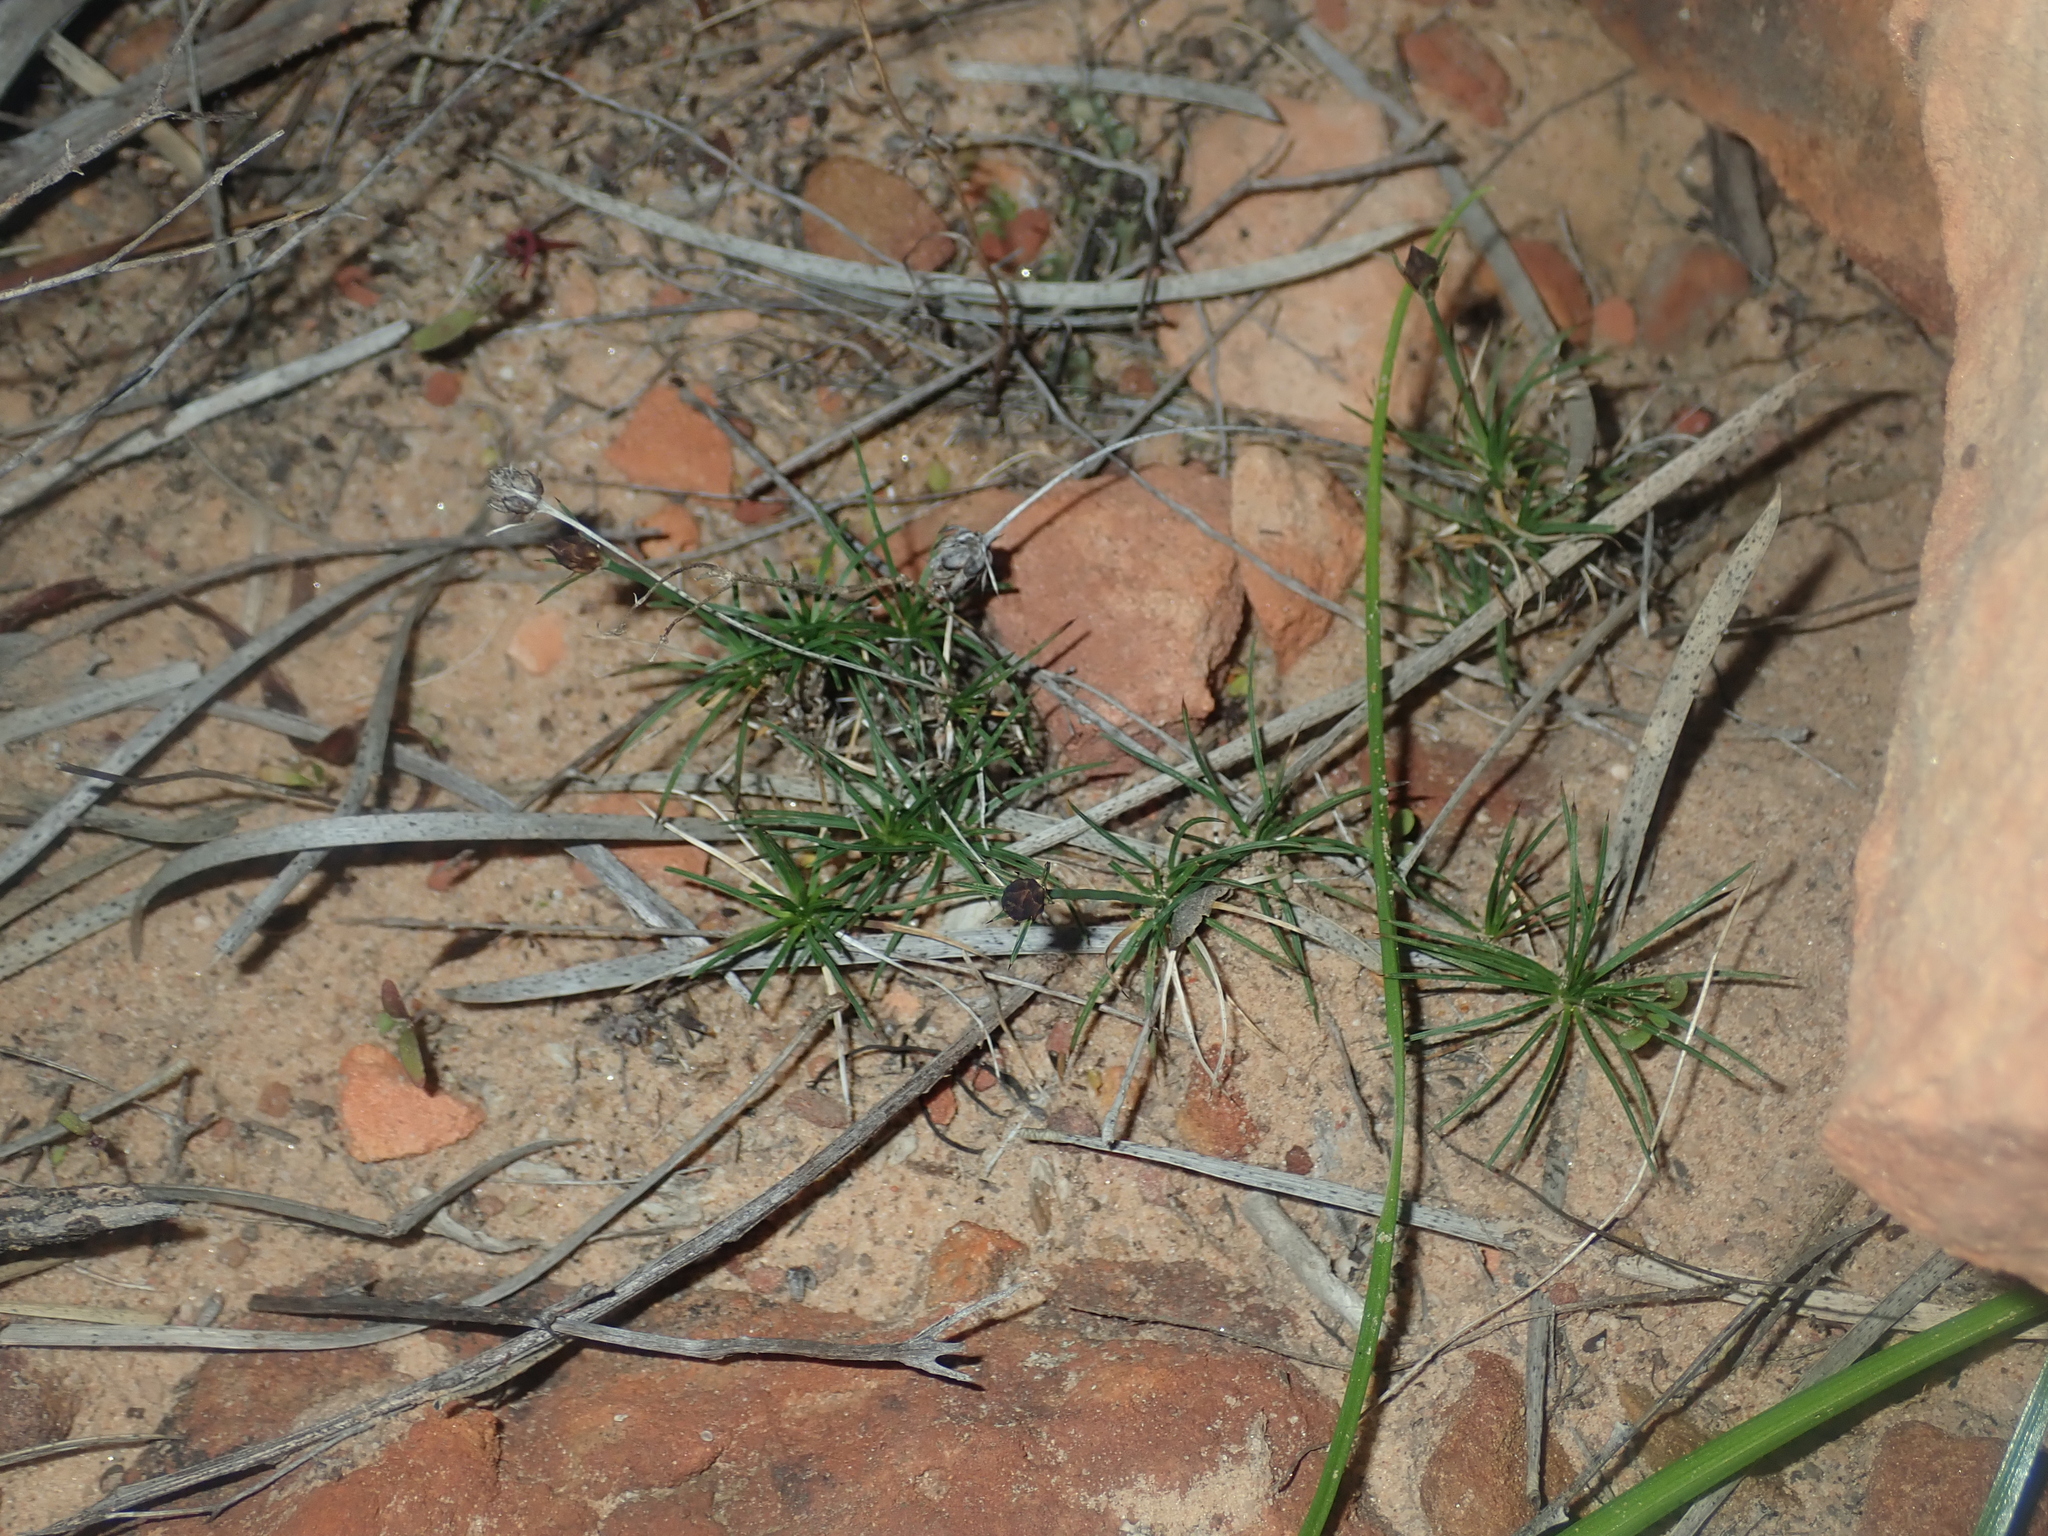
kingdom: Plantae
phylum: Tracheophyta
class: Liliopsida
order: Asparagales
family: Boryaceae
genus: Borya
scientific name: Borya sphaerocephala
